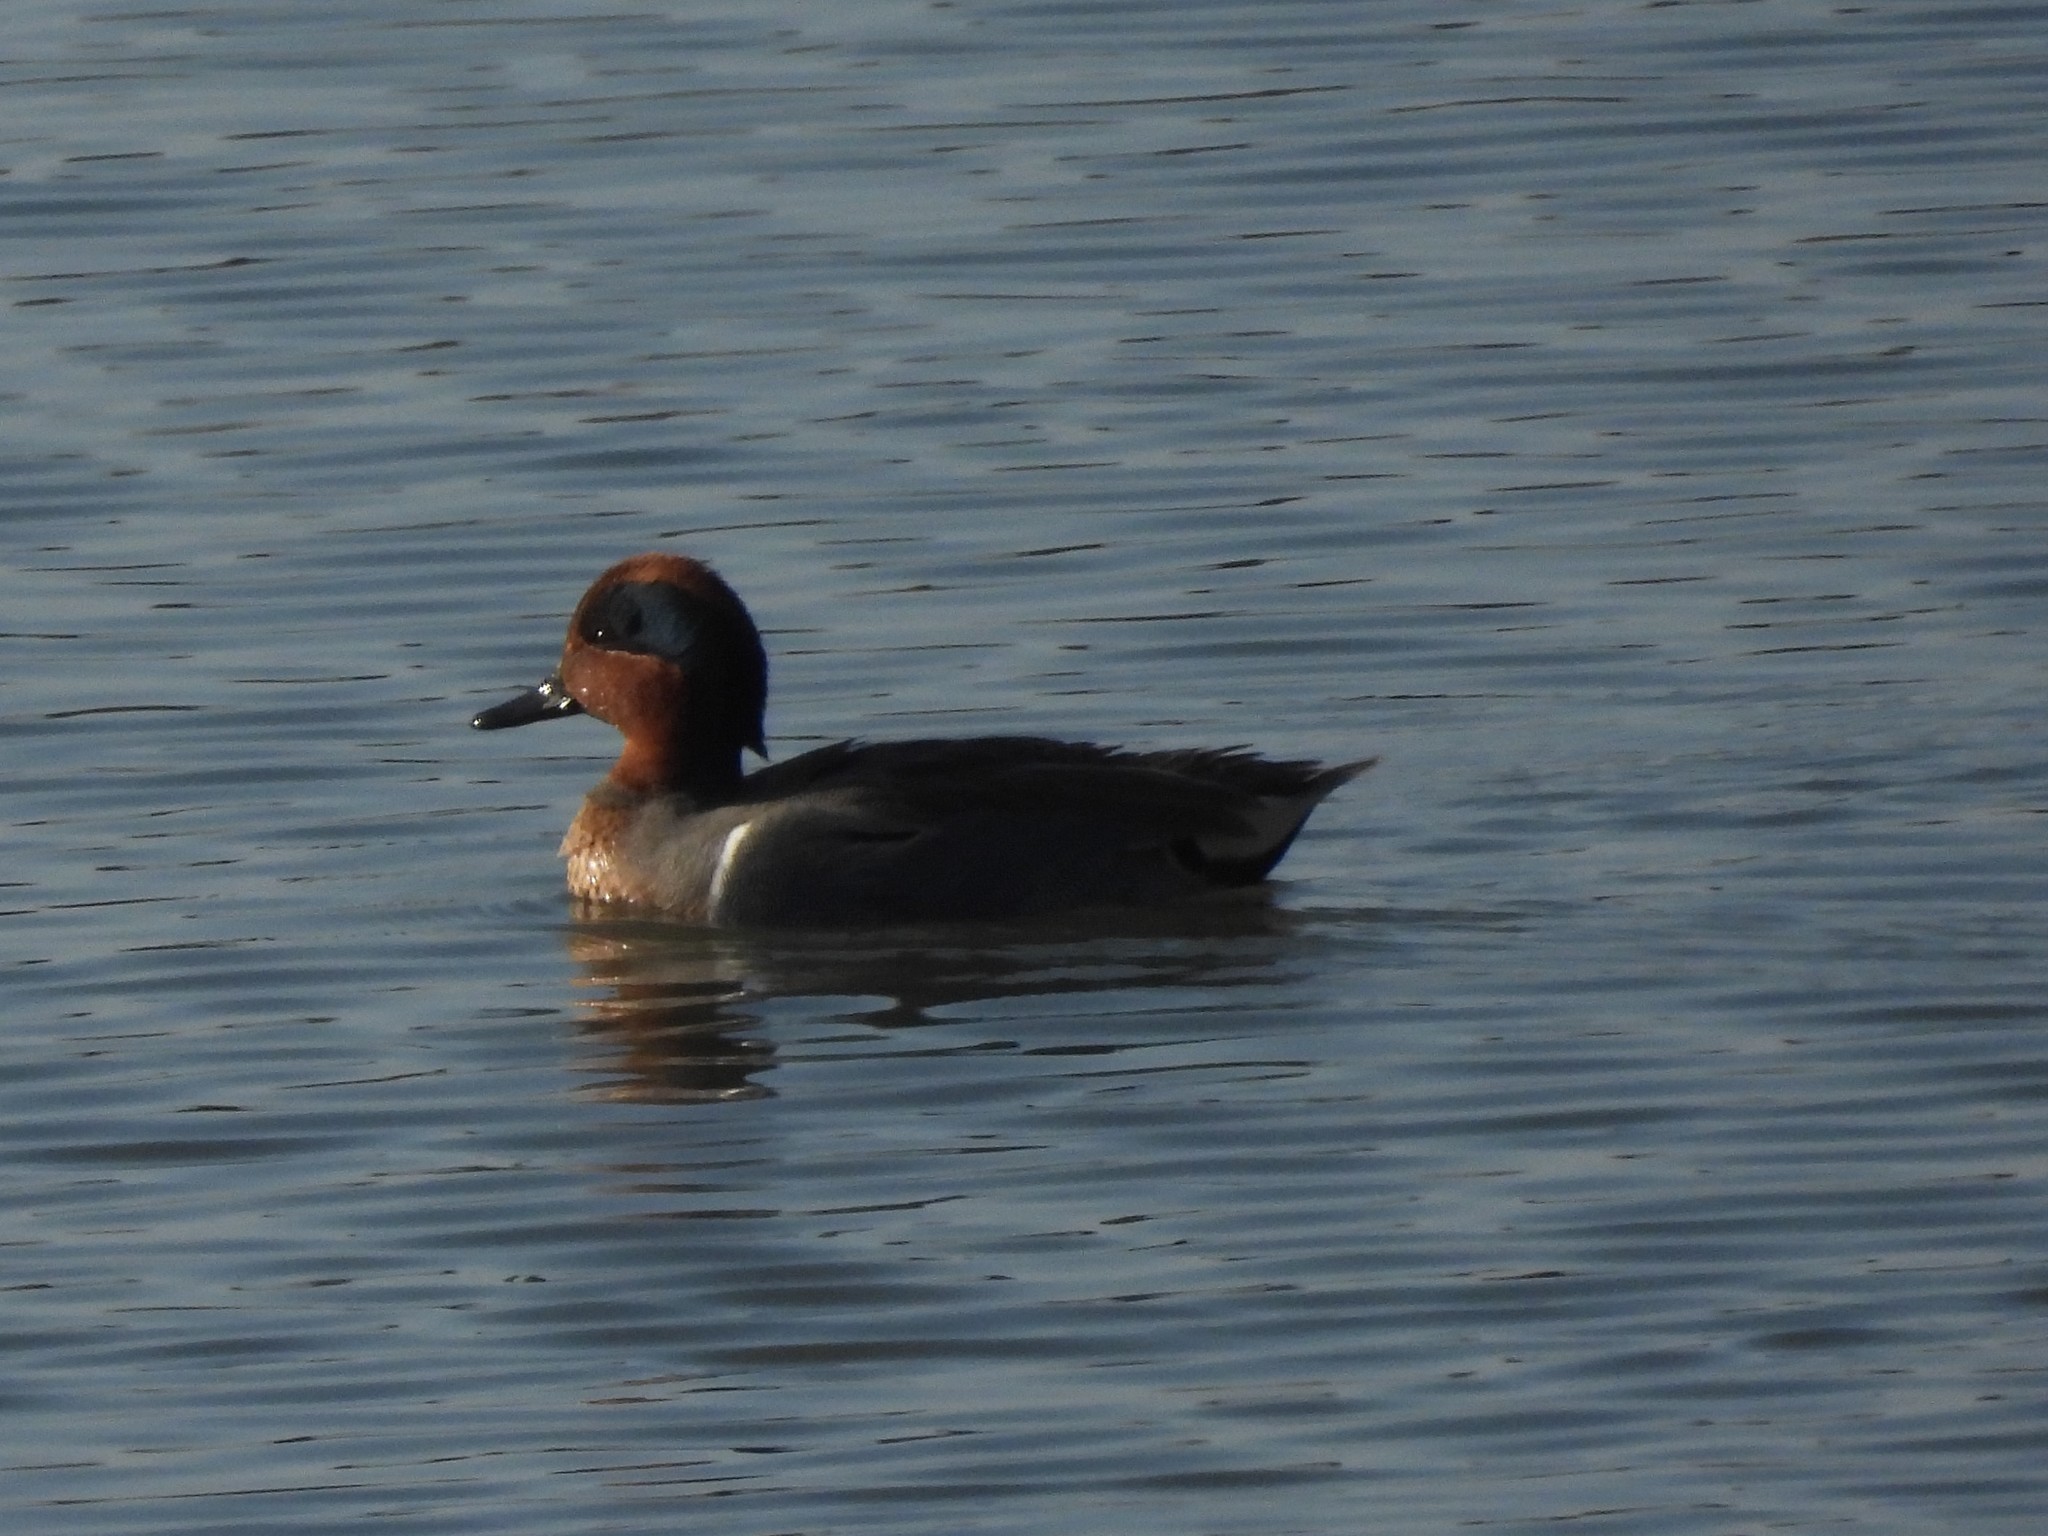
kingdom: Animalia
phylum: Chordata
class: Aves
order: Anseriformes
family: Anatidae
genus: Anas
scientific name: Anas crecca
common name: Eurasian teal
